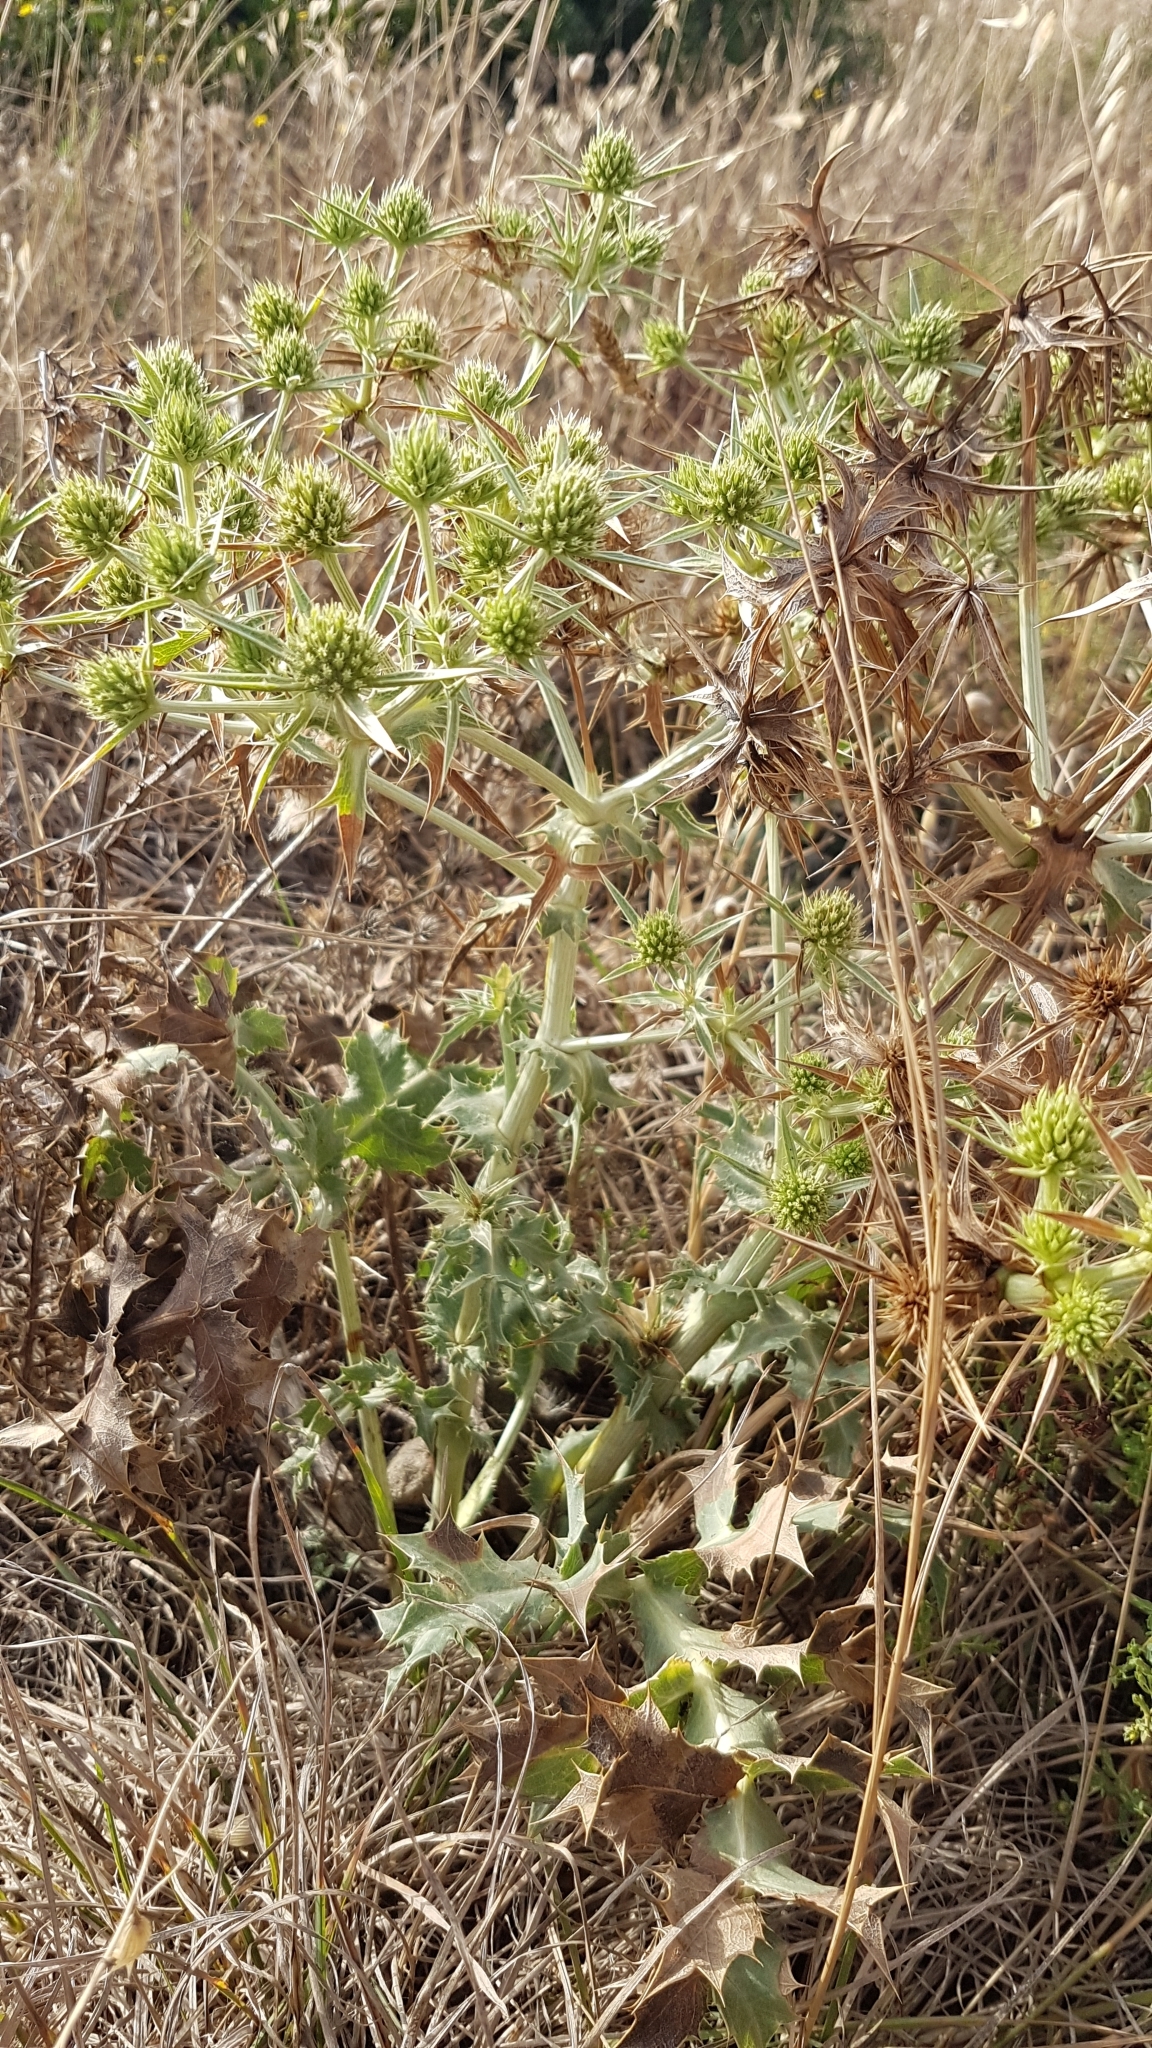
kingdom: Plantae
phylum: Tracheophyta
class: Magnoliopsida
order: Apiales
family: Apiaceae
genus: Eryngium
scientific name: Eryngium campestre
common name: Field eryngo
